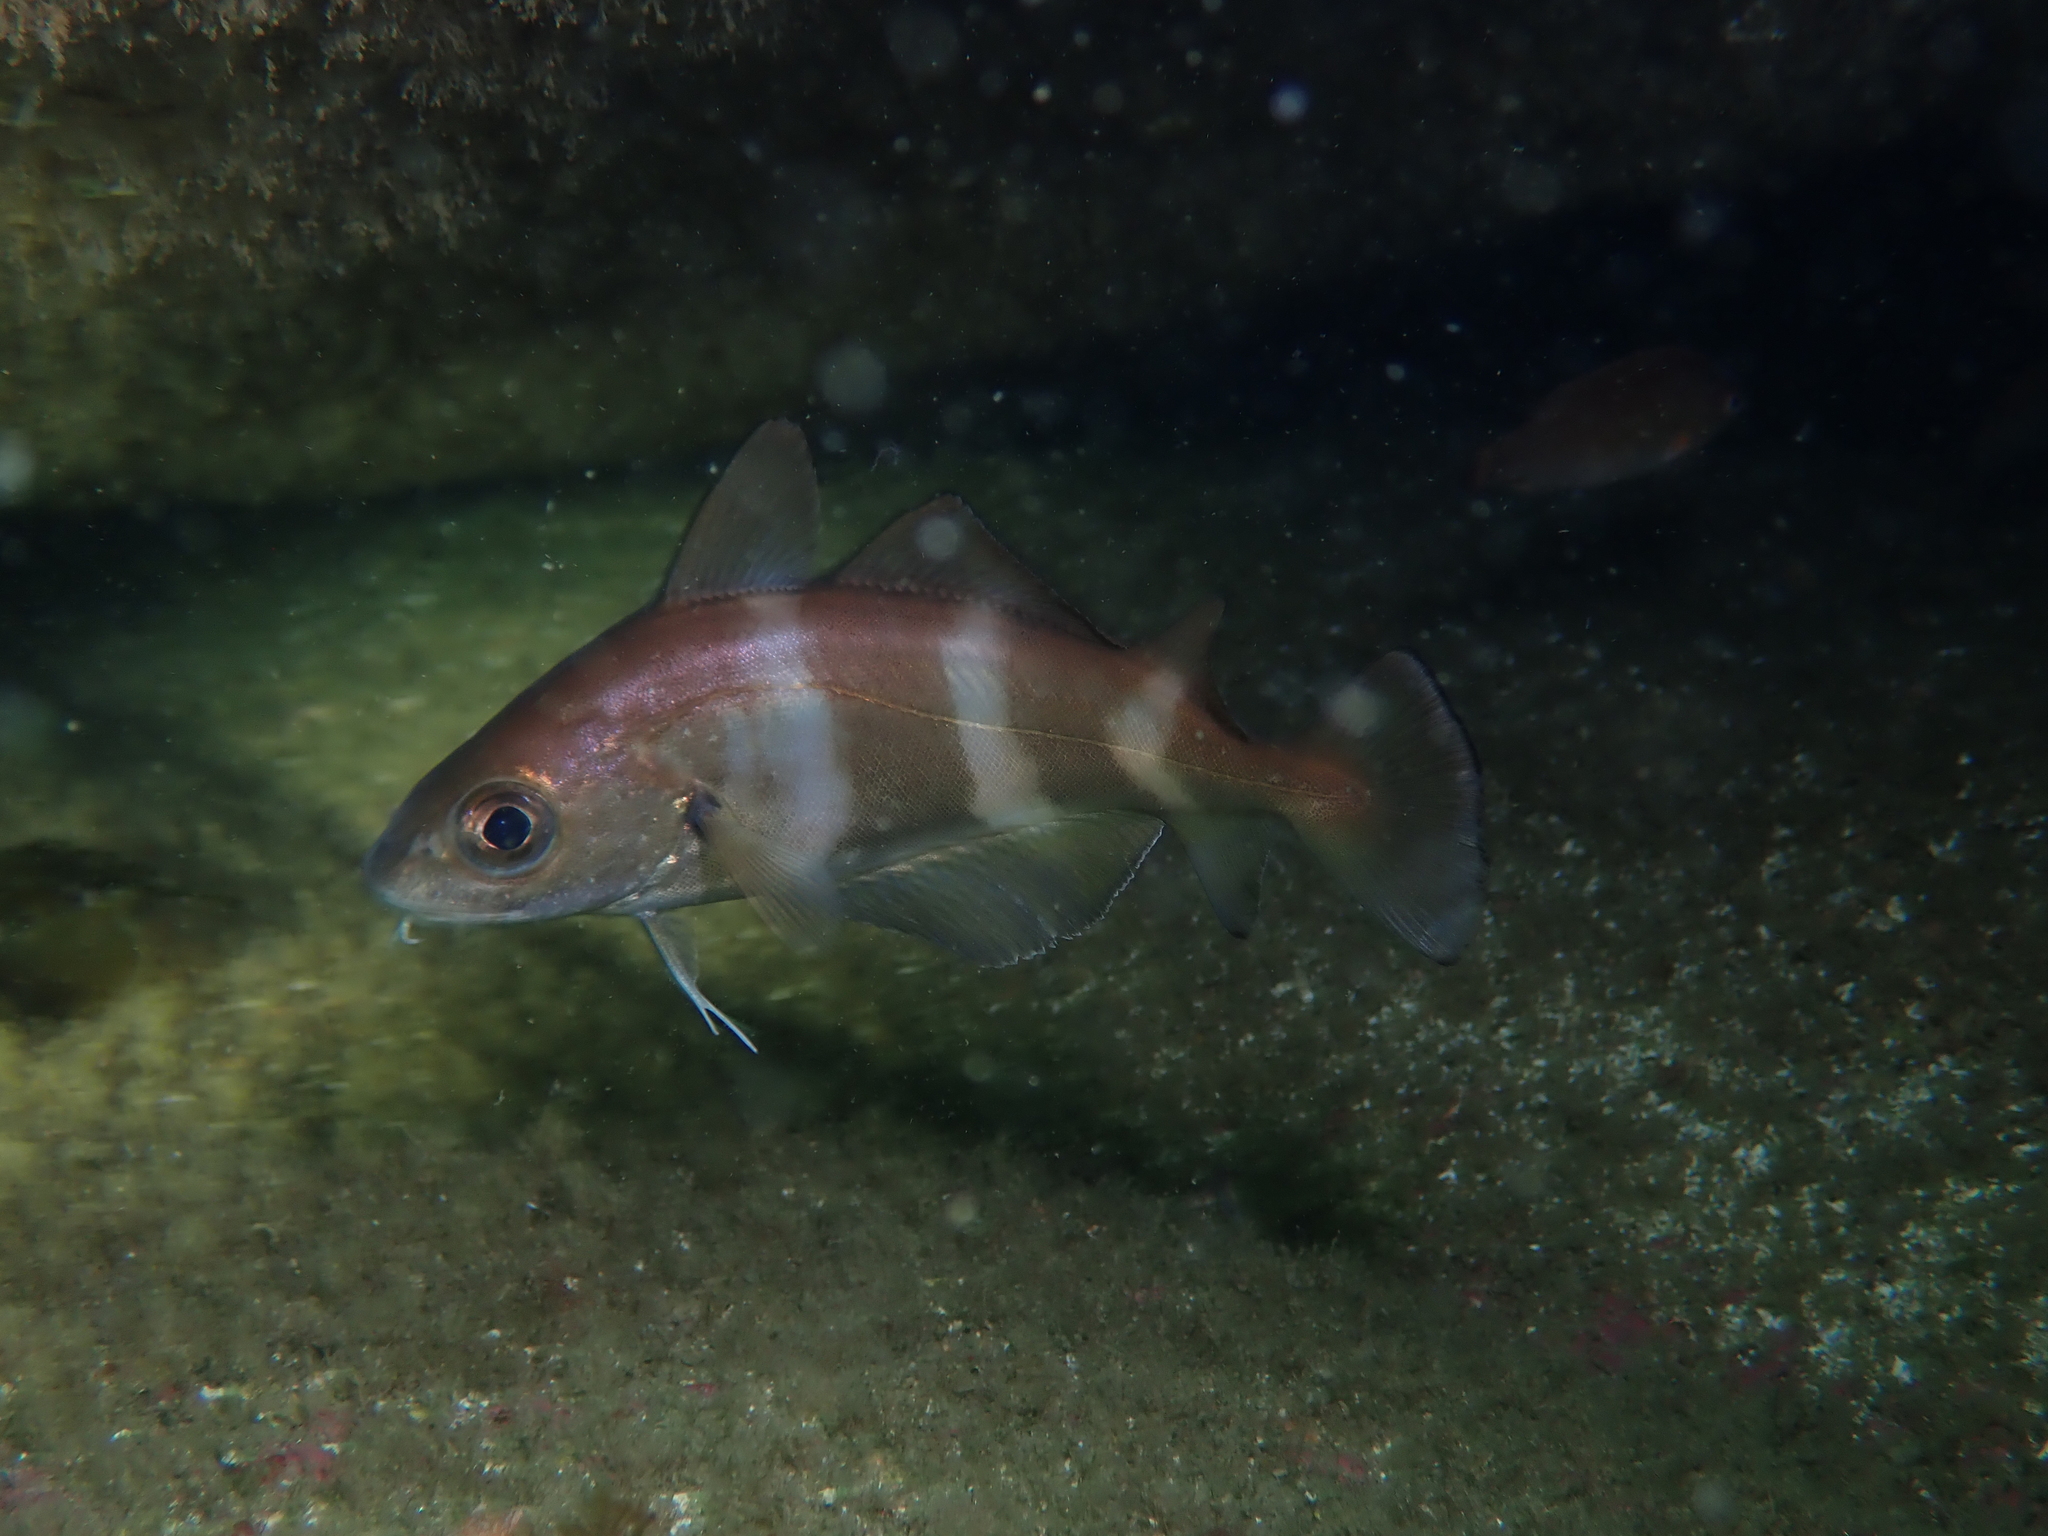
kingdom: Animalia
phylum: Chordata
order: Gadiformes
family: Gadidae
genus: Trisopterus
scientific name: Trisopterus luscus
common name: Bib
